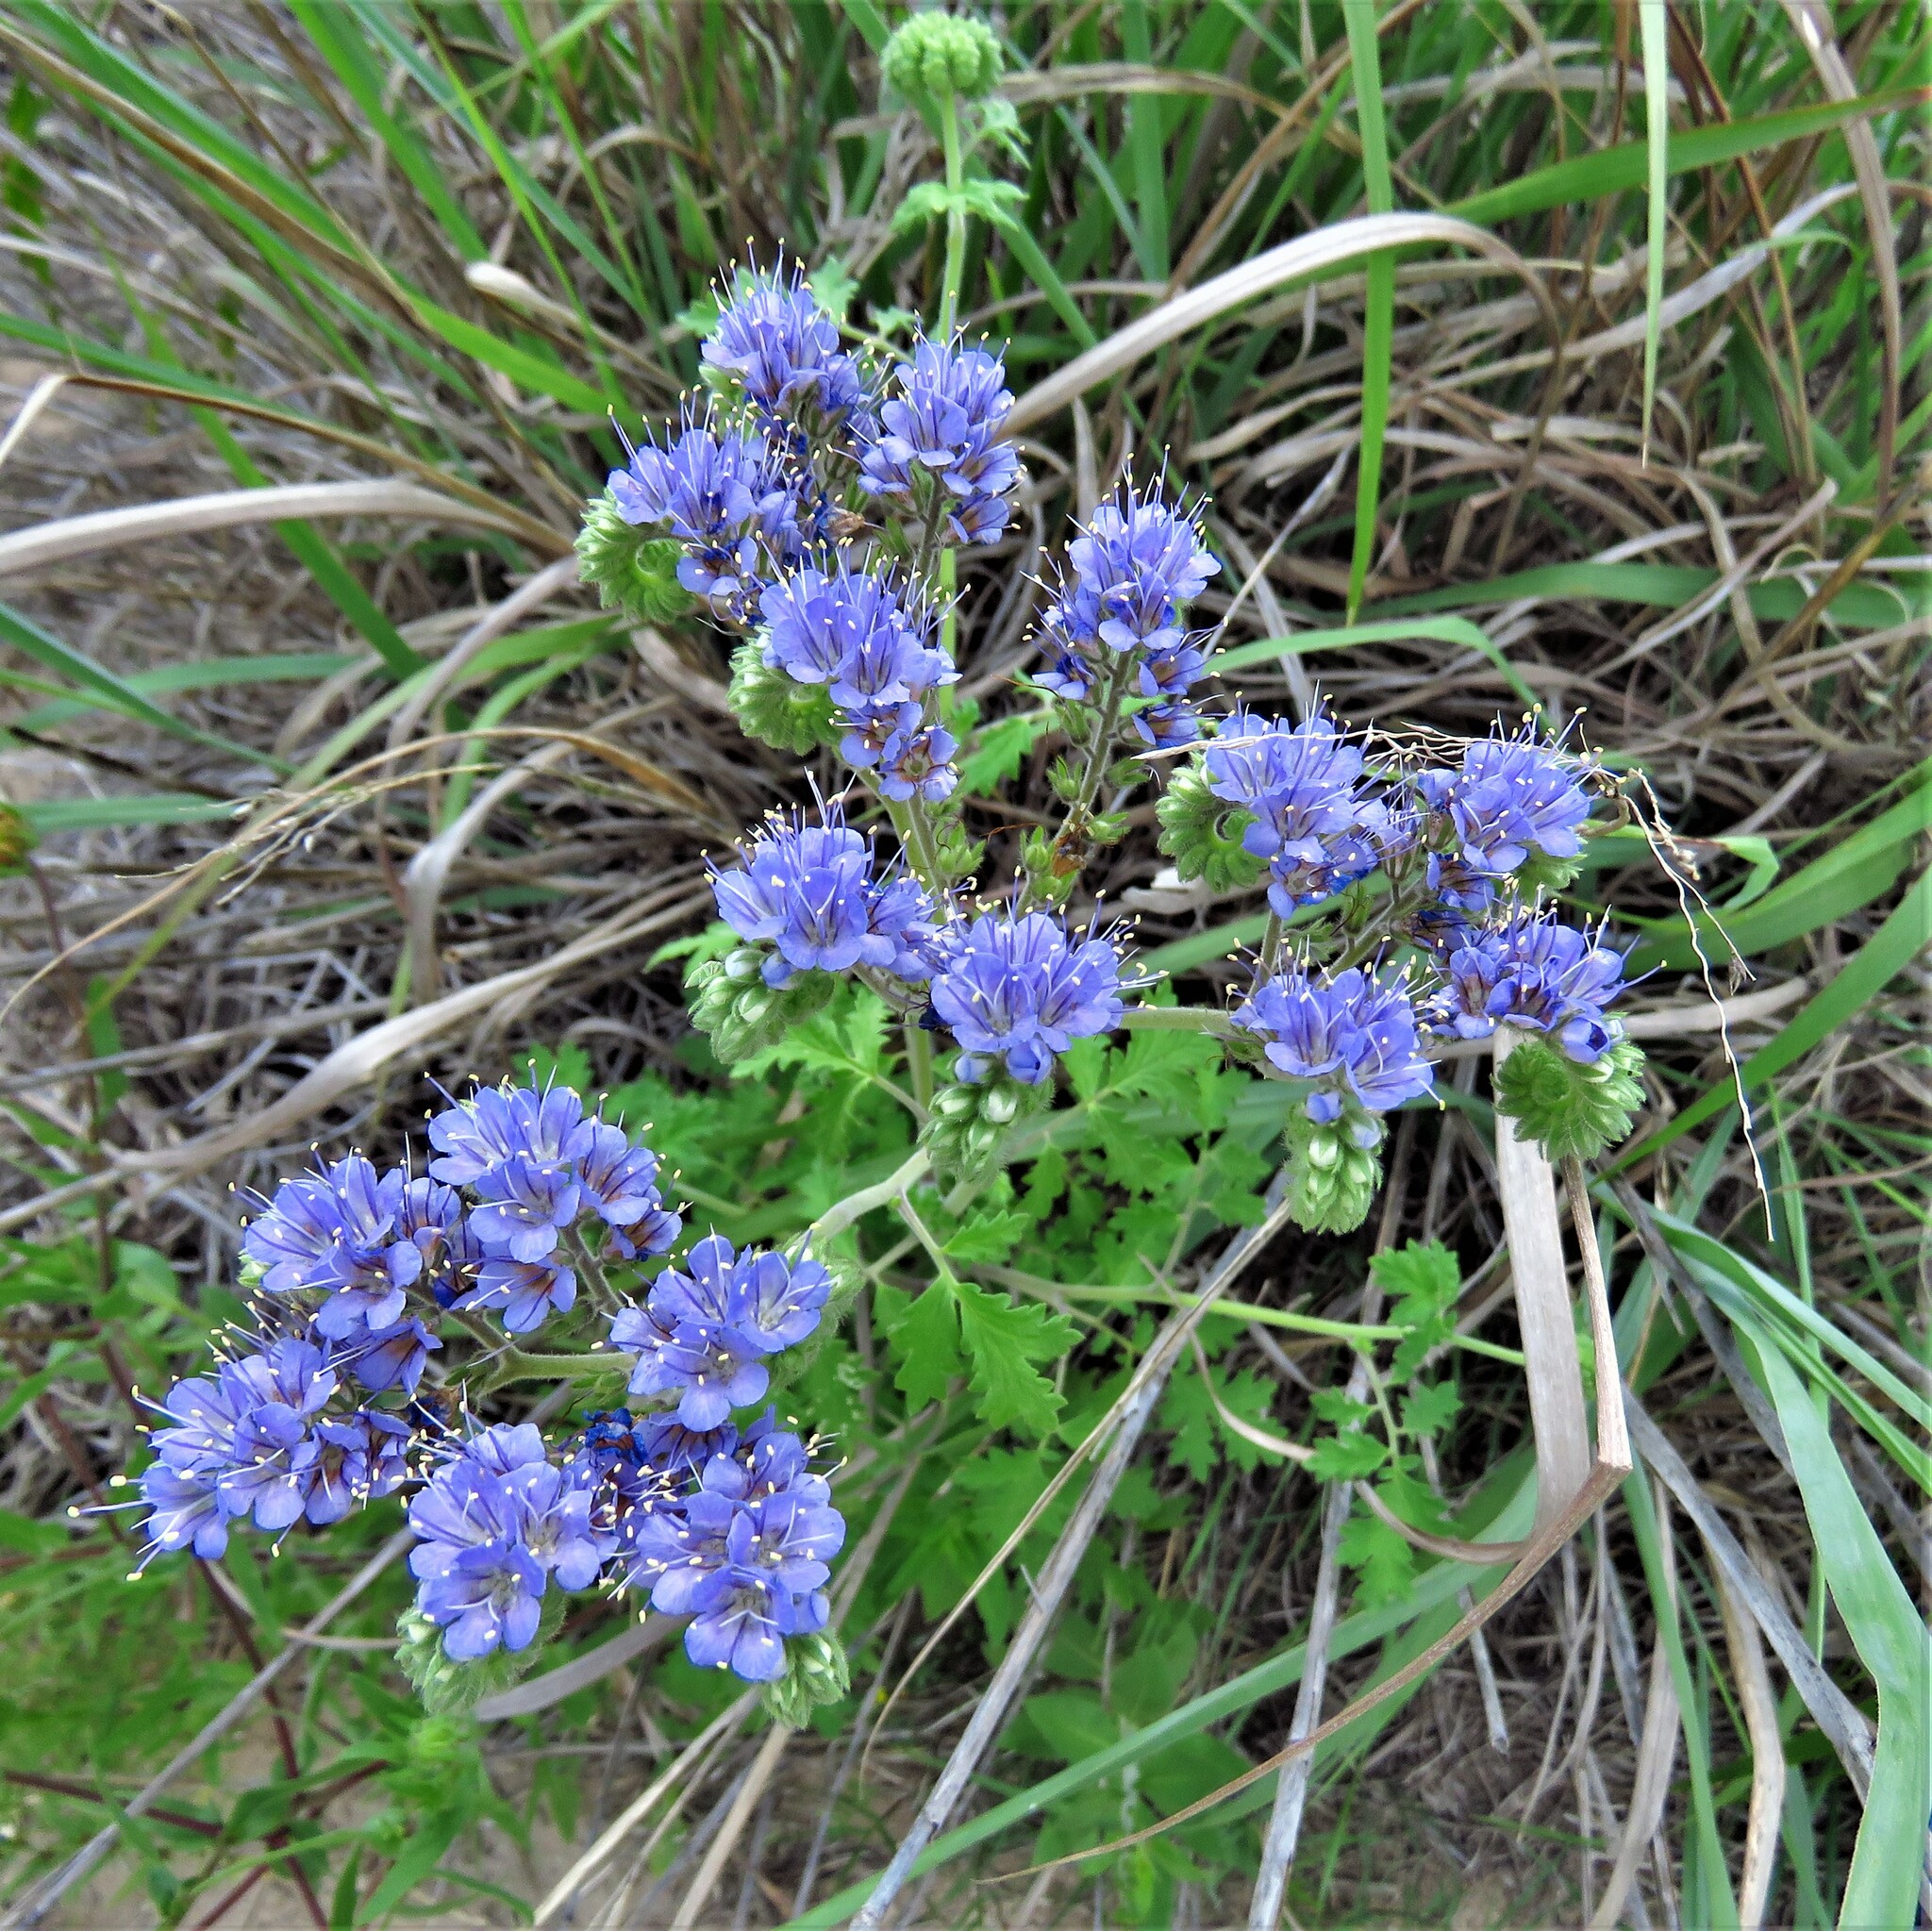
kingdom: Plantae
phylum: Tracheophyta
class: Magnoliopsida
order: Boraginales
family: Hydrophyllaceae
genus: Phacelia
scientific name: Phacelia congesta
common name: Blue curls
